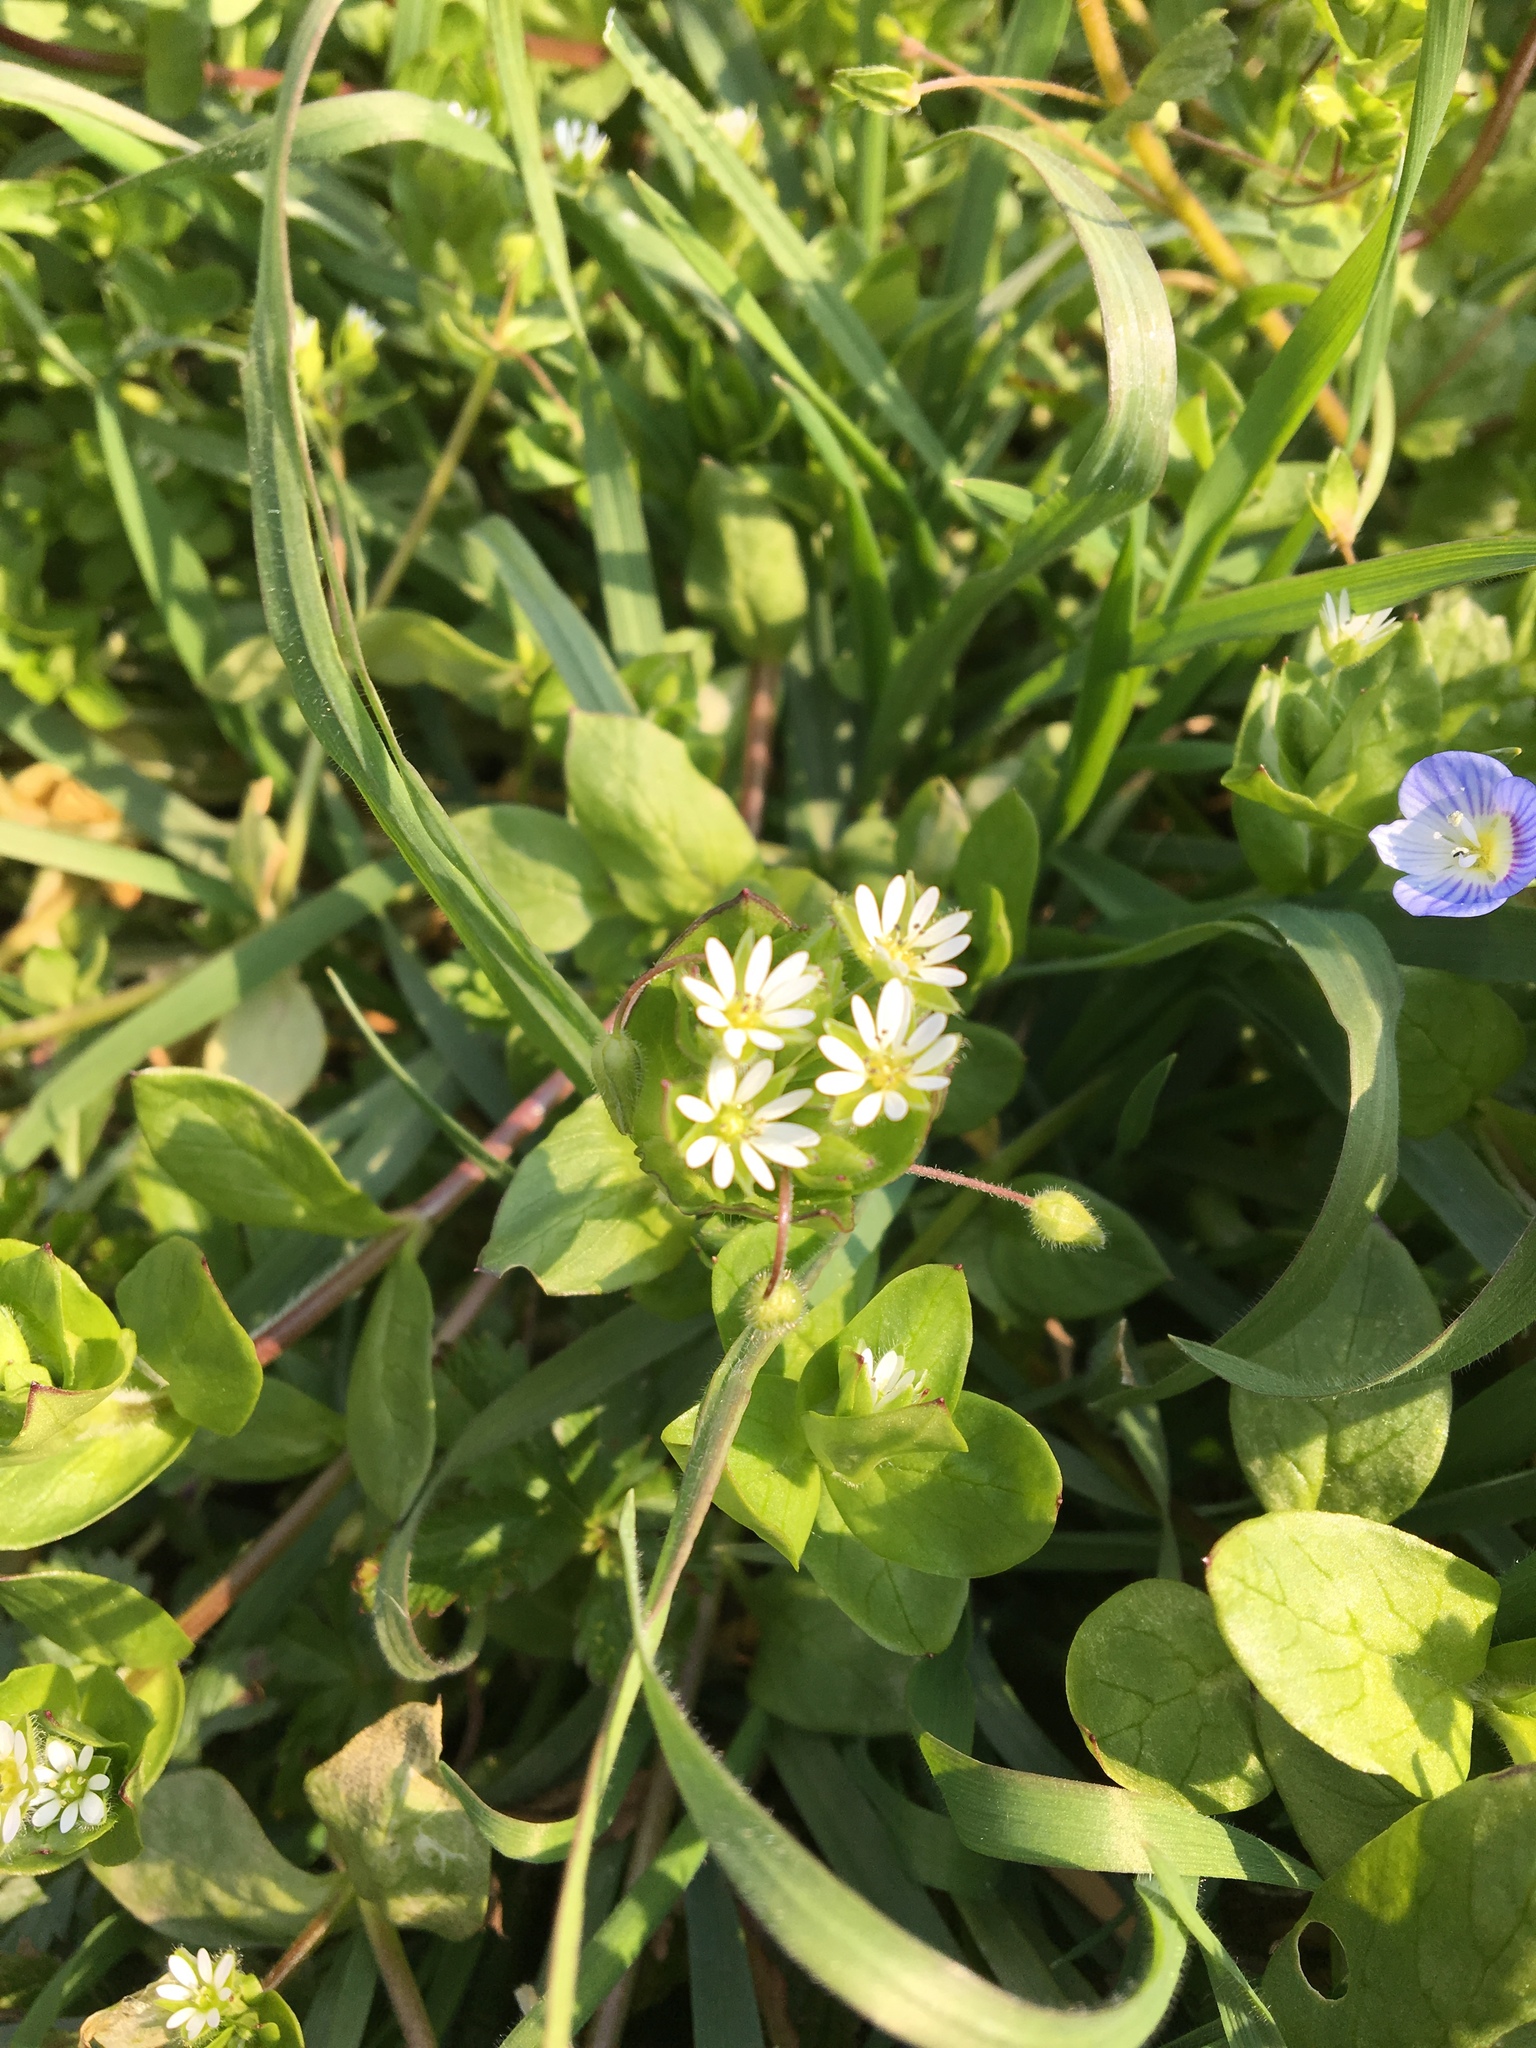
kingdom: Plantae
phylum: Tracheophyta
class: Magnoliopsida
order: Caryophyllales
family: Caryophyllaceae
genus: Stellaria
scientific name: Stellaria media
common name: Common chickweed
